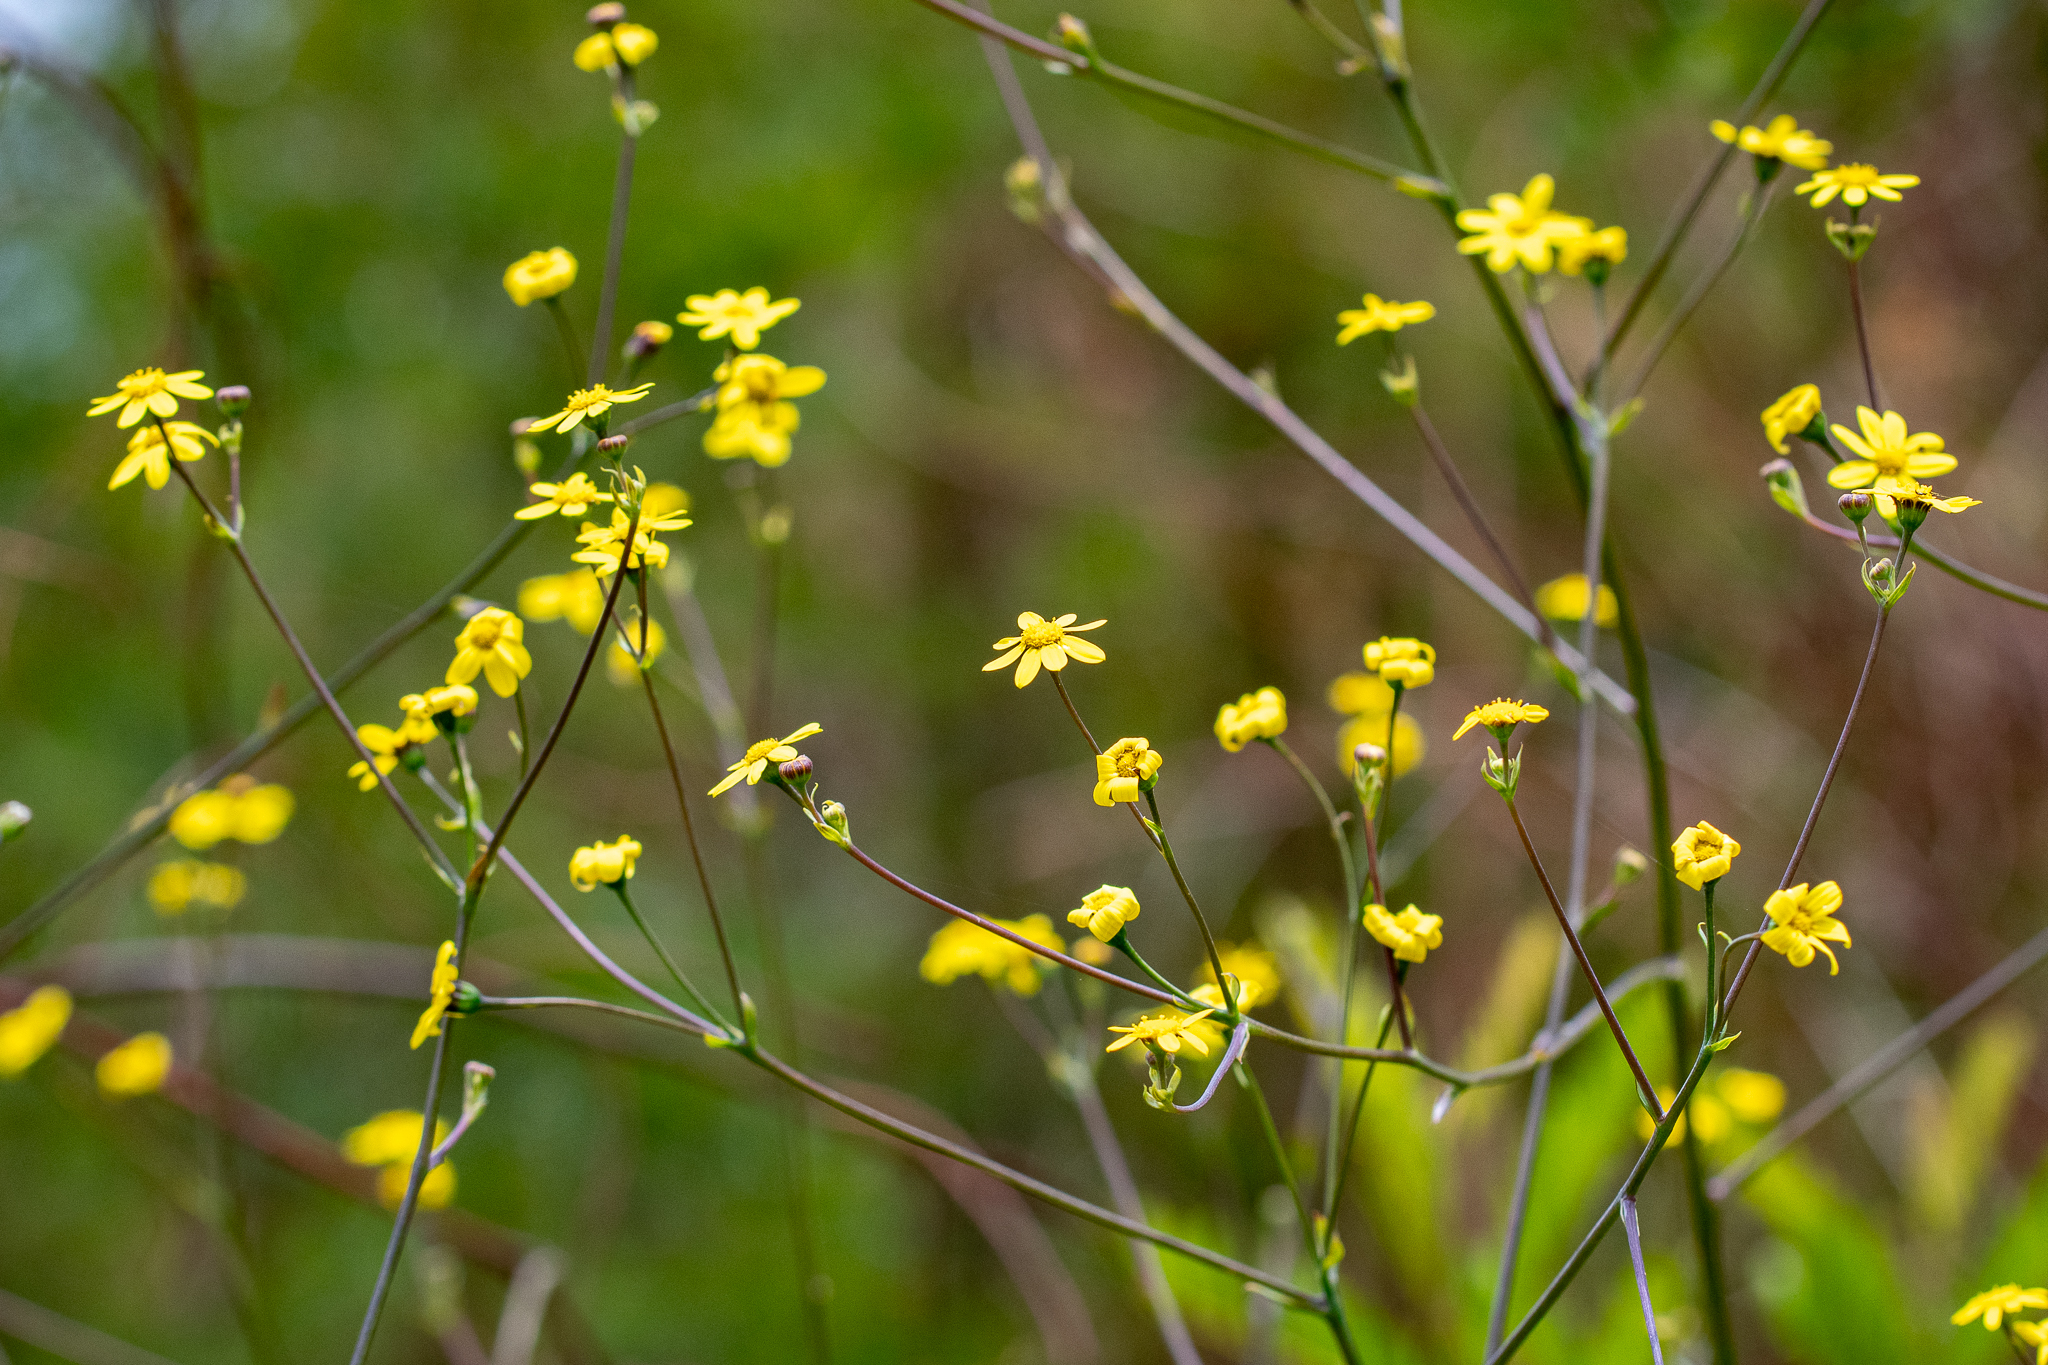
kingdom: Plantae
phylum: Tracheophyta
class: Magnoliopsida
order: Asterales
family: Asteraceae
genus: Othonna
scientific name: Othonna quinquedentata
